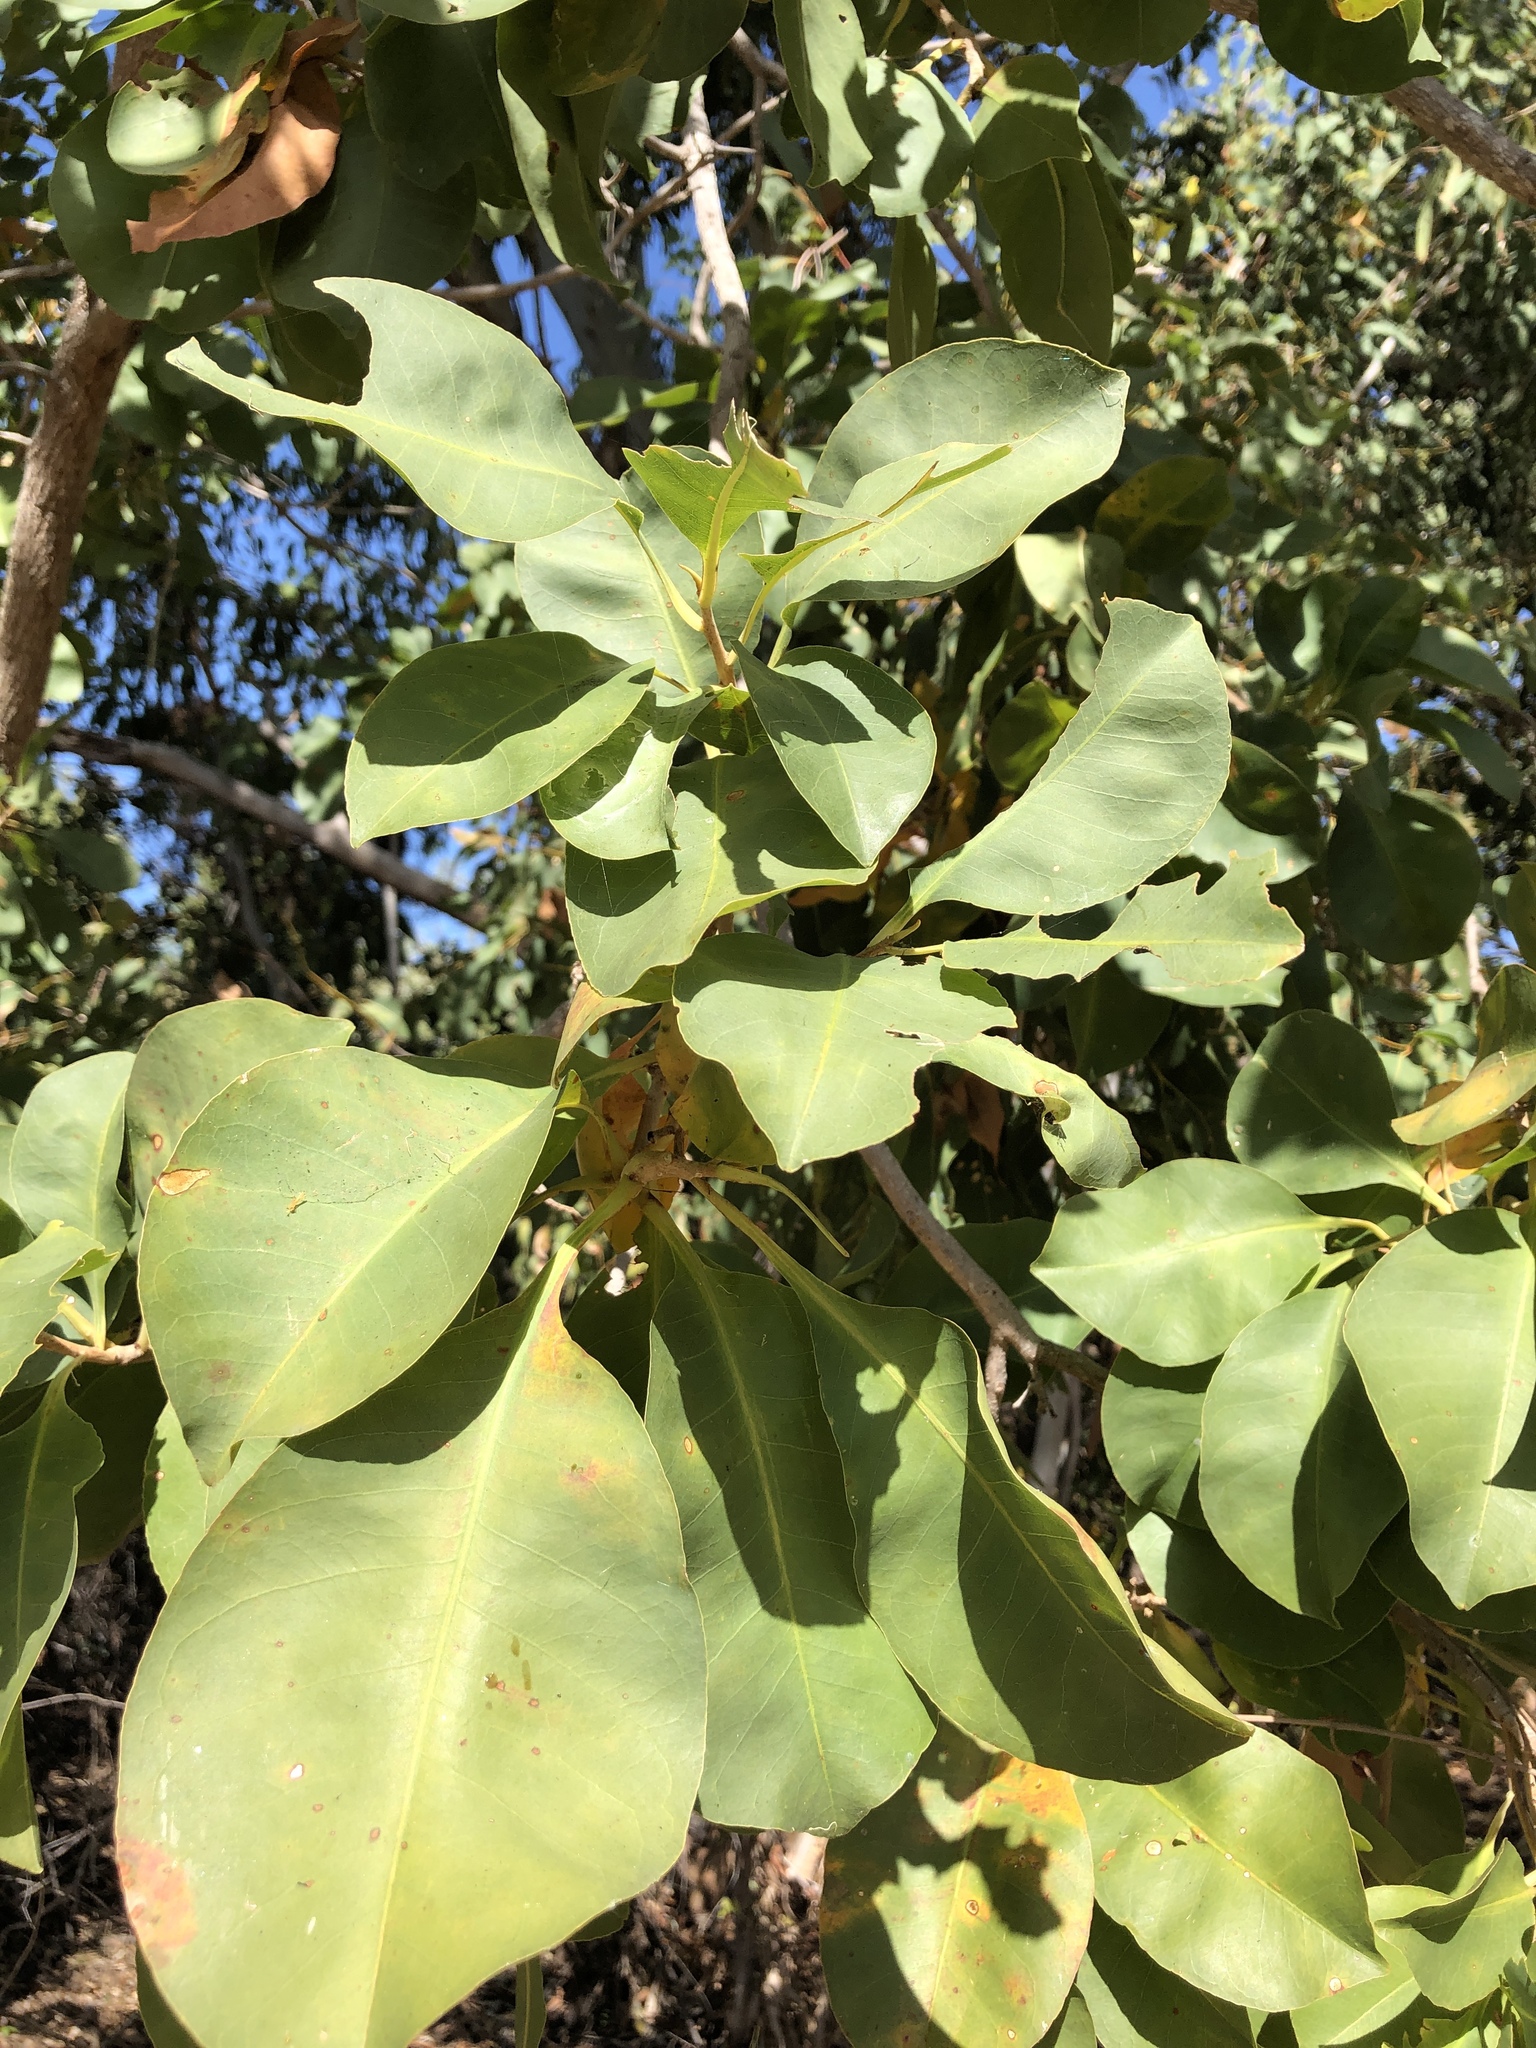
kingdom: Plantae
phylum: Tracheophyta
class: Magnoliopsida
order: Ericales
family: Lecythidaceae
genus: Planchonia
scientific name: Planchonia careya
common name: Cockatoo-apple
